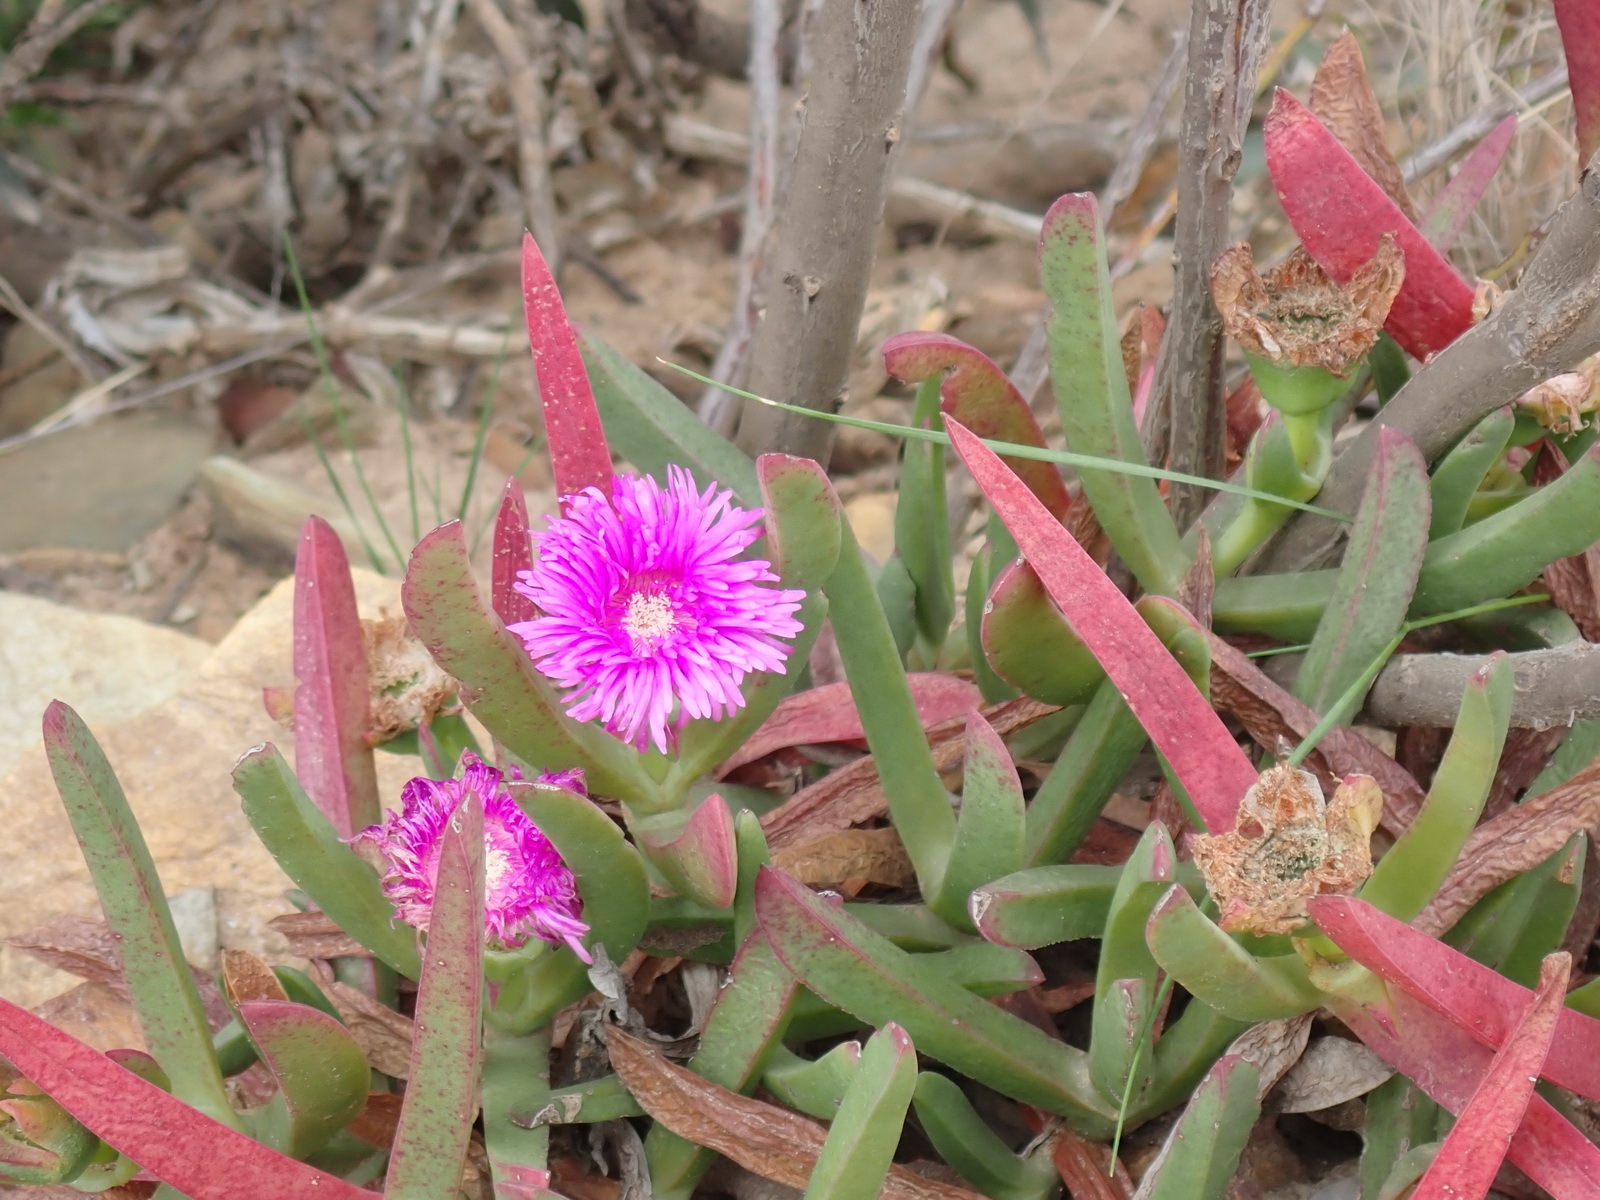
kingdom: Plantae
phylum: Tracheophyta
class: Magnoliopsida
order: Caryophyllales
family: Aizoaceae
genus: Carpobrotus
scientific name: Carpobrotus deliciosus
